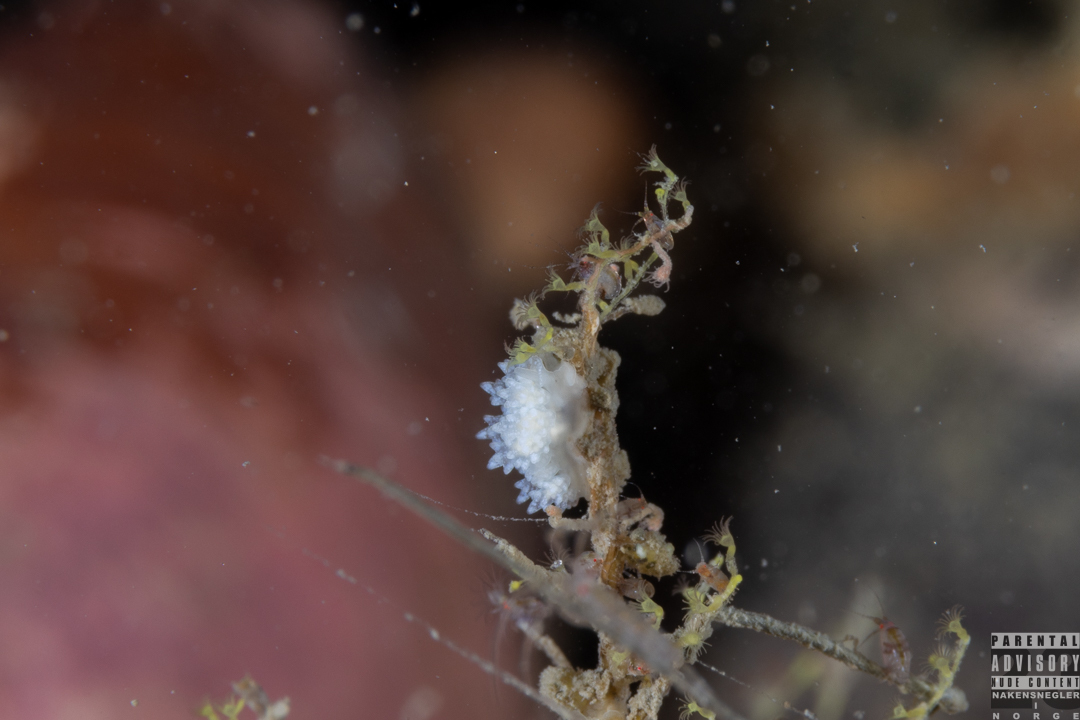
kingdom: Animalia
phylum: Mollusca
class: Gastropoda
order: Nudibranchia
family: Dotidae
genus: Doto
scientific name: Doto fragilis
